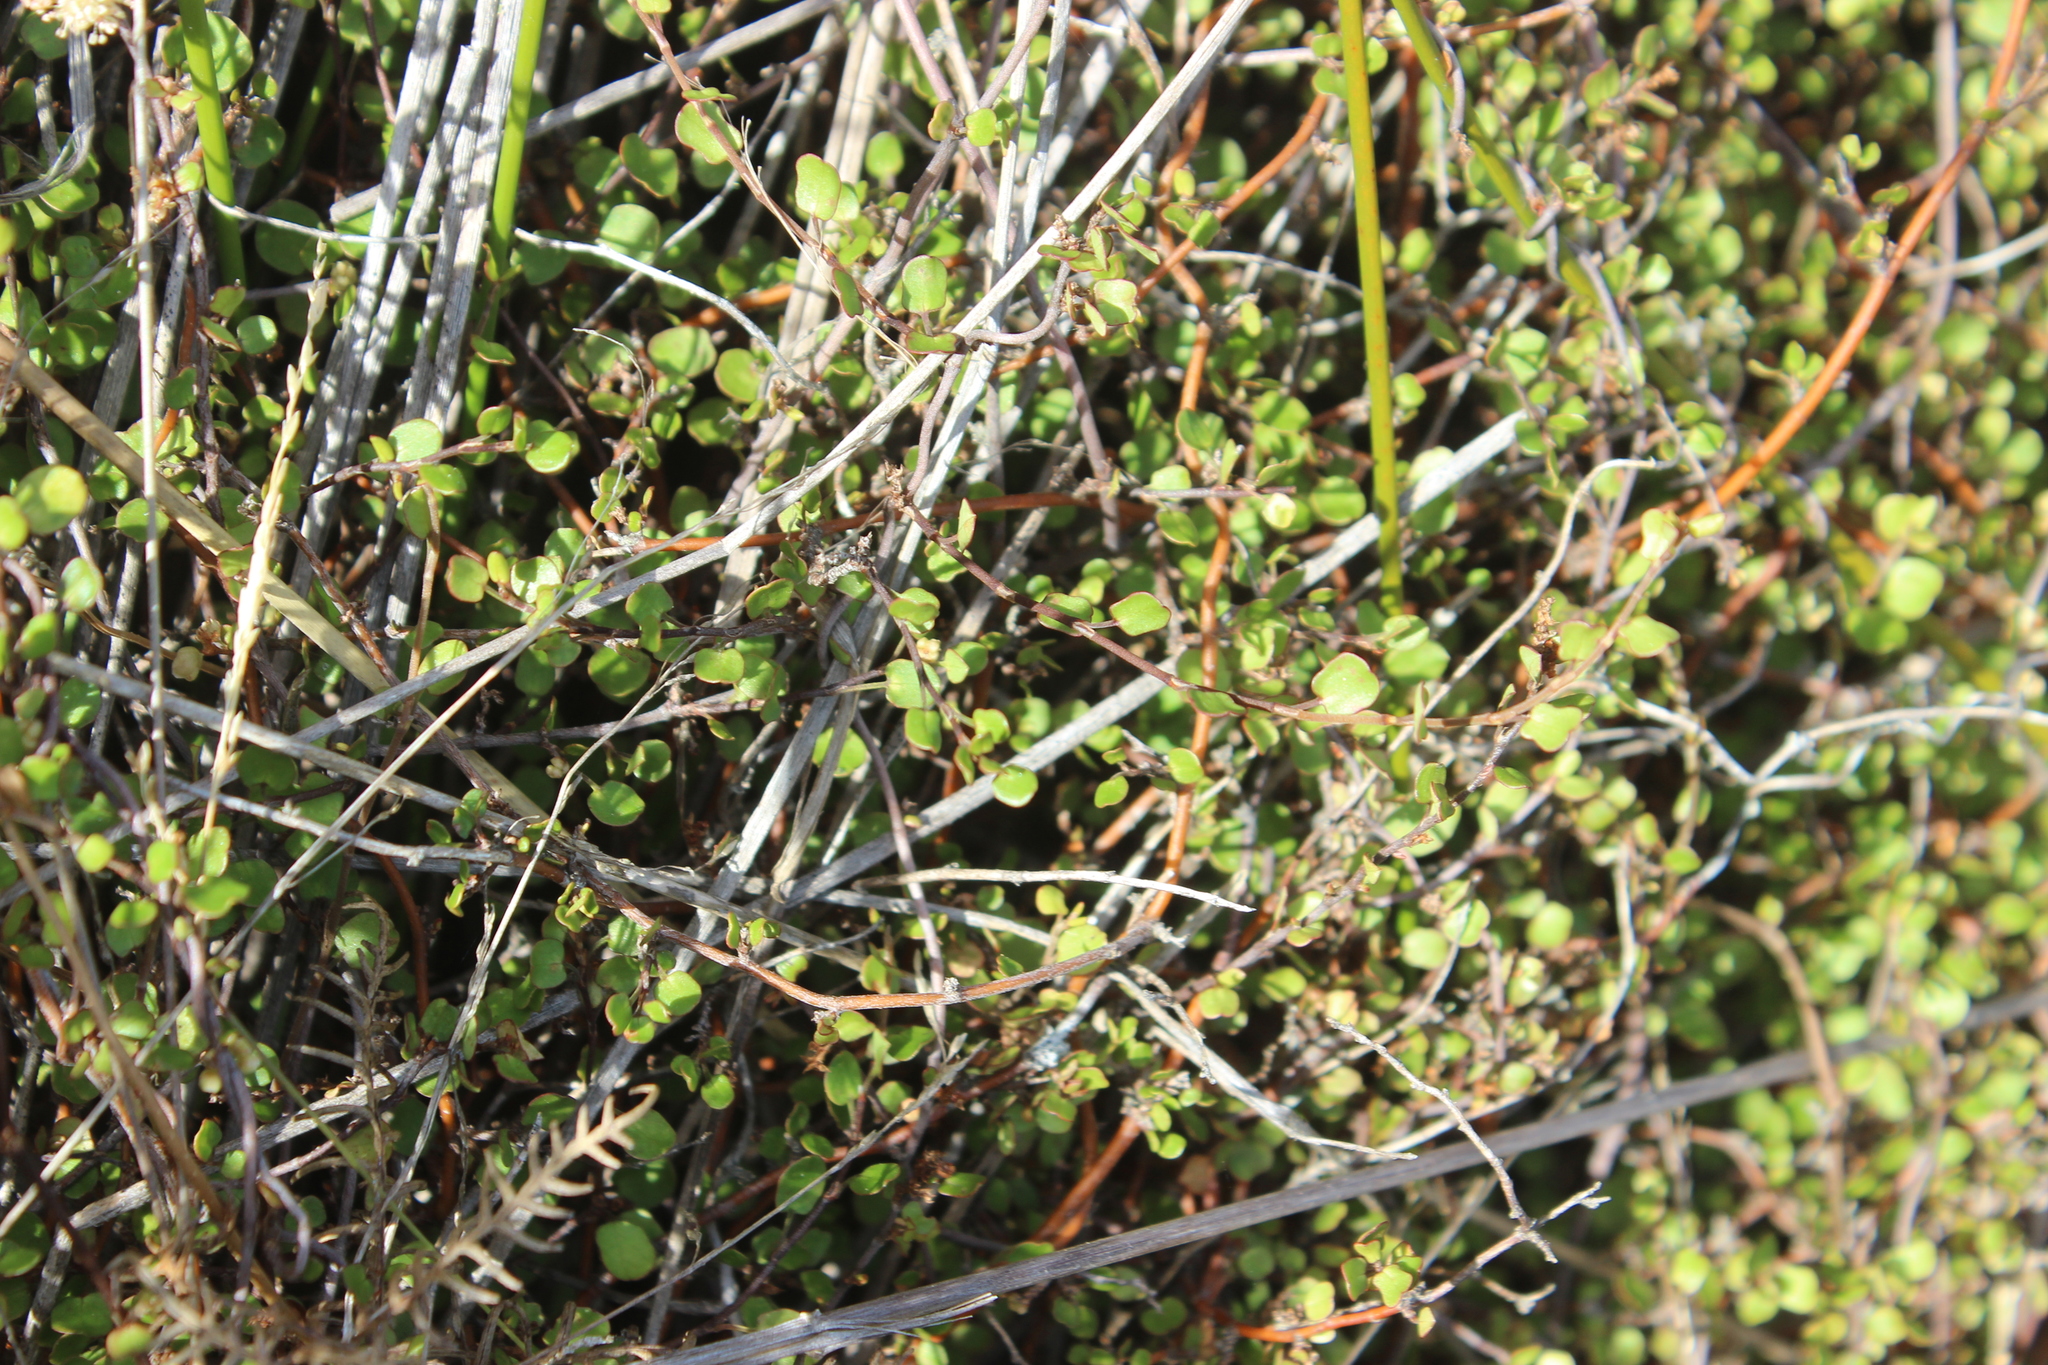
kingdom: Plantae
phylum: Tracheophyta
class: Magnoliopsida
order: Caryophyllales
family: Polygonaceae
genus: Muehlenbeckia
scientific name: Muehlenbeckia complexa
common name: Wireplant
